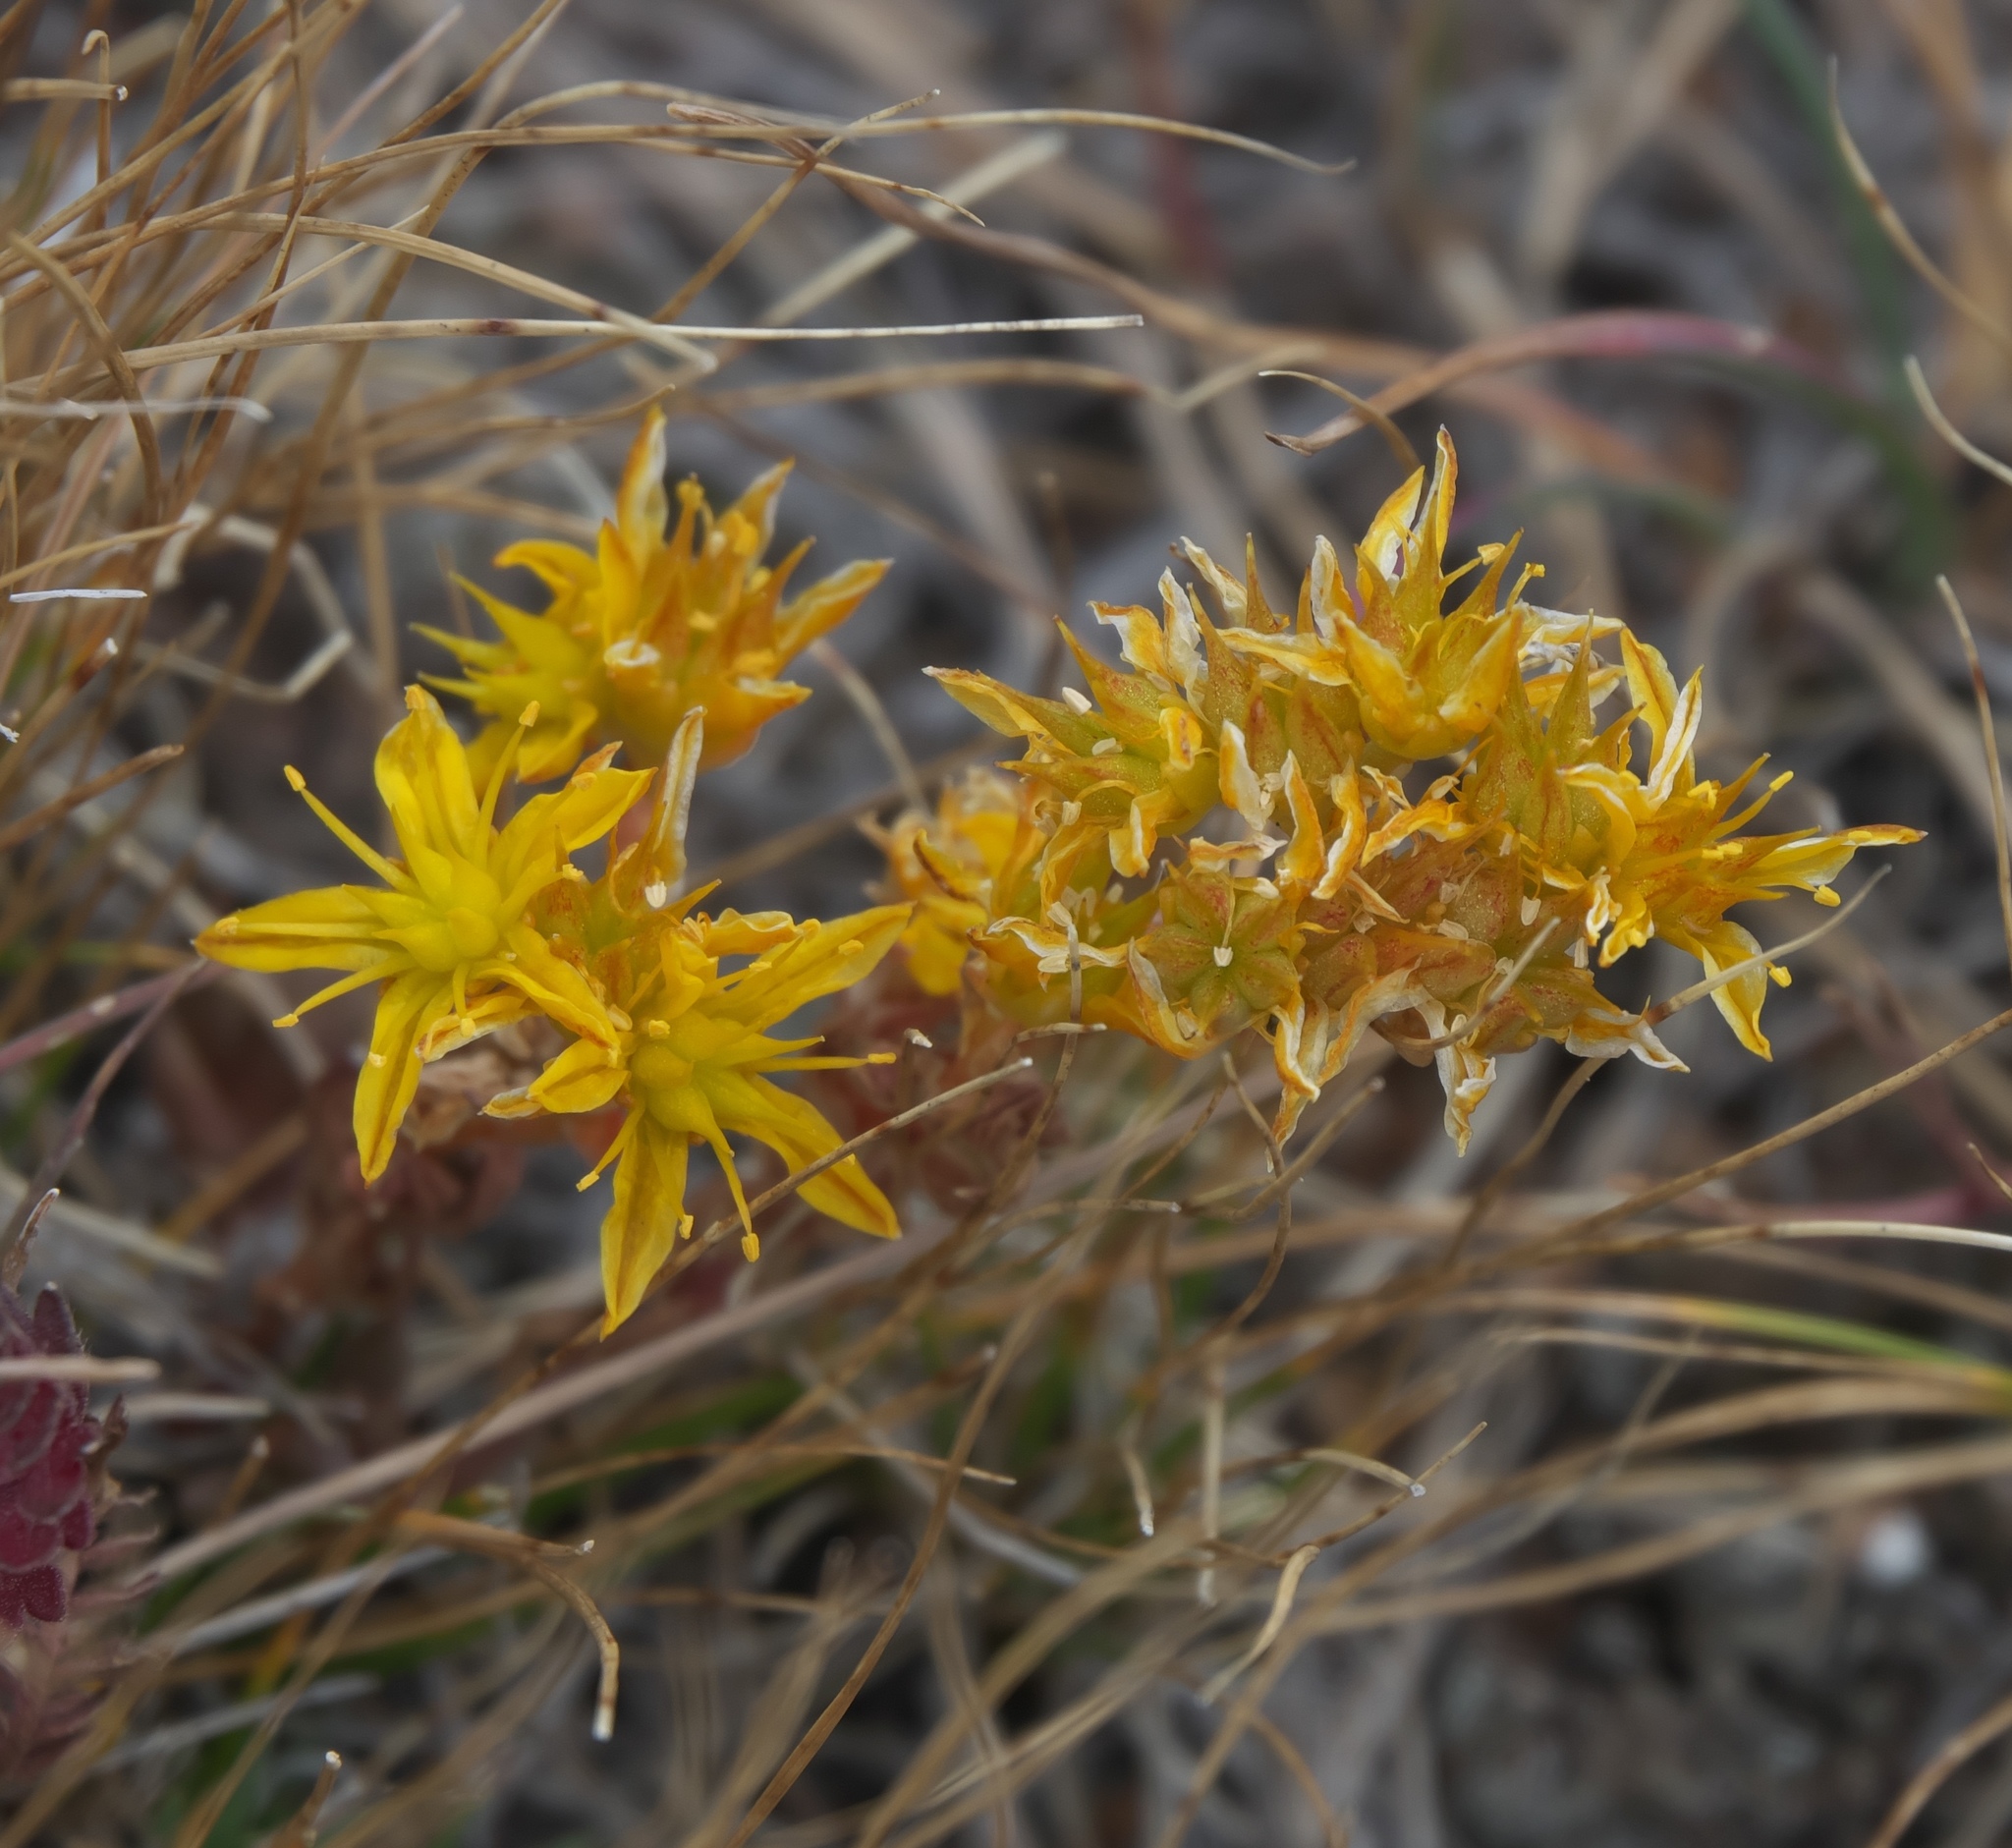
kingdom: Plantae
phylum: Tracheophyta
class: Magnoliopsida
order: Saxifragales
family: Crassulaceae
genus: Sedum
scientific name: Sedum lanceolatum
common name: Common stonecrop
